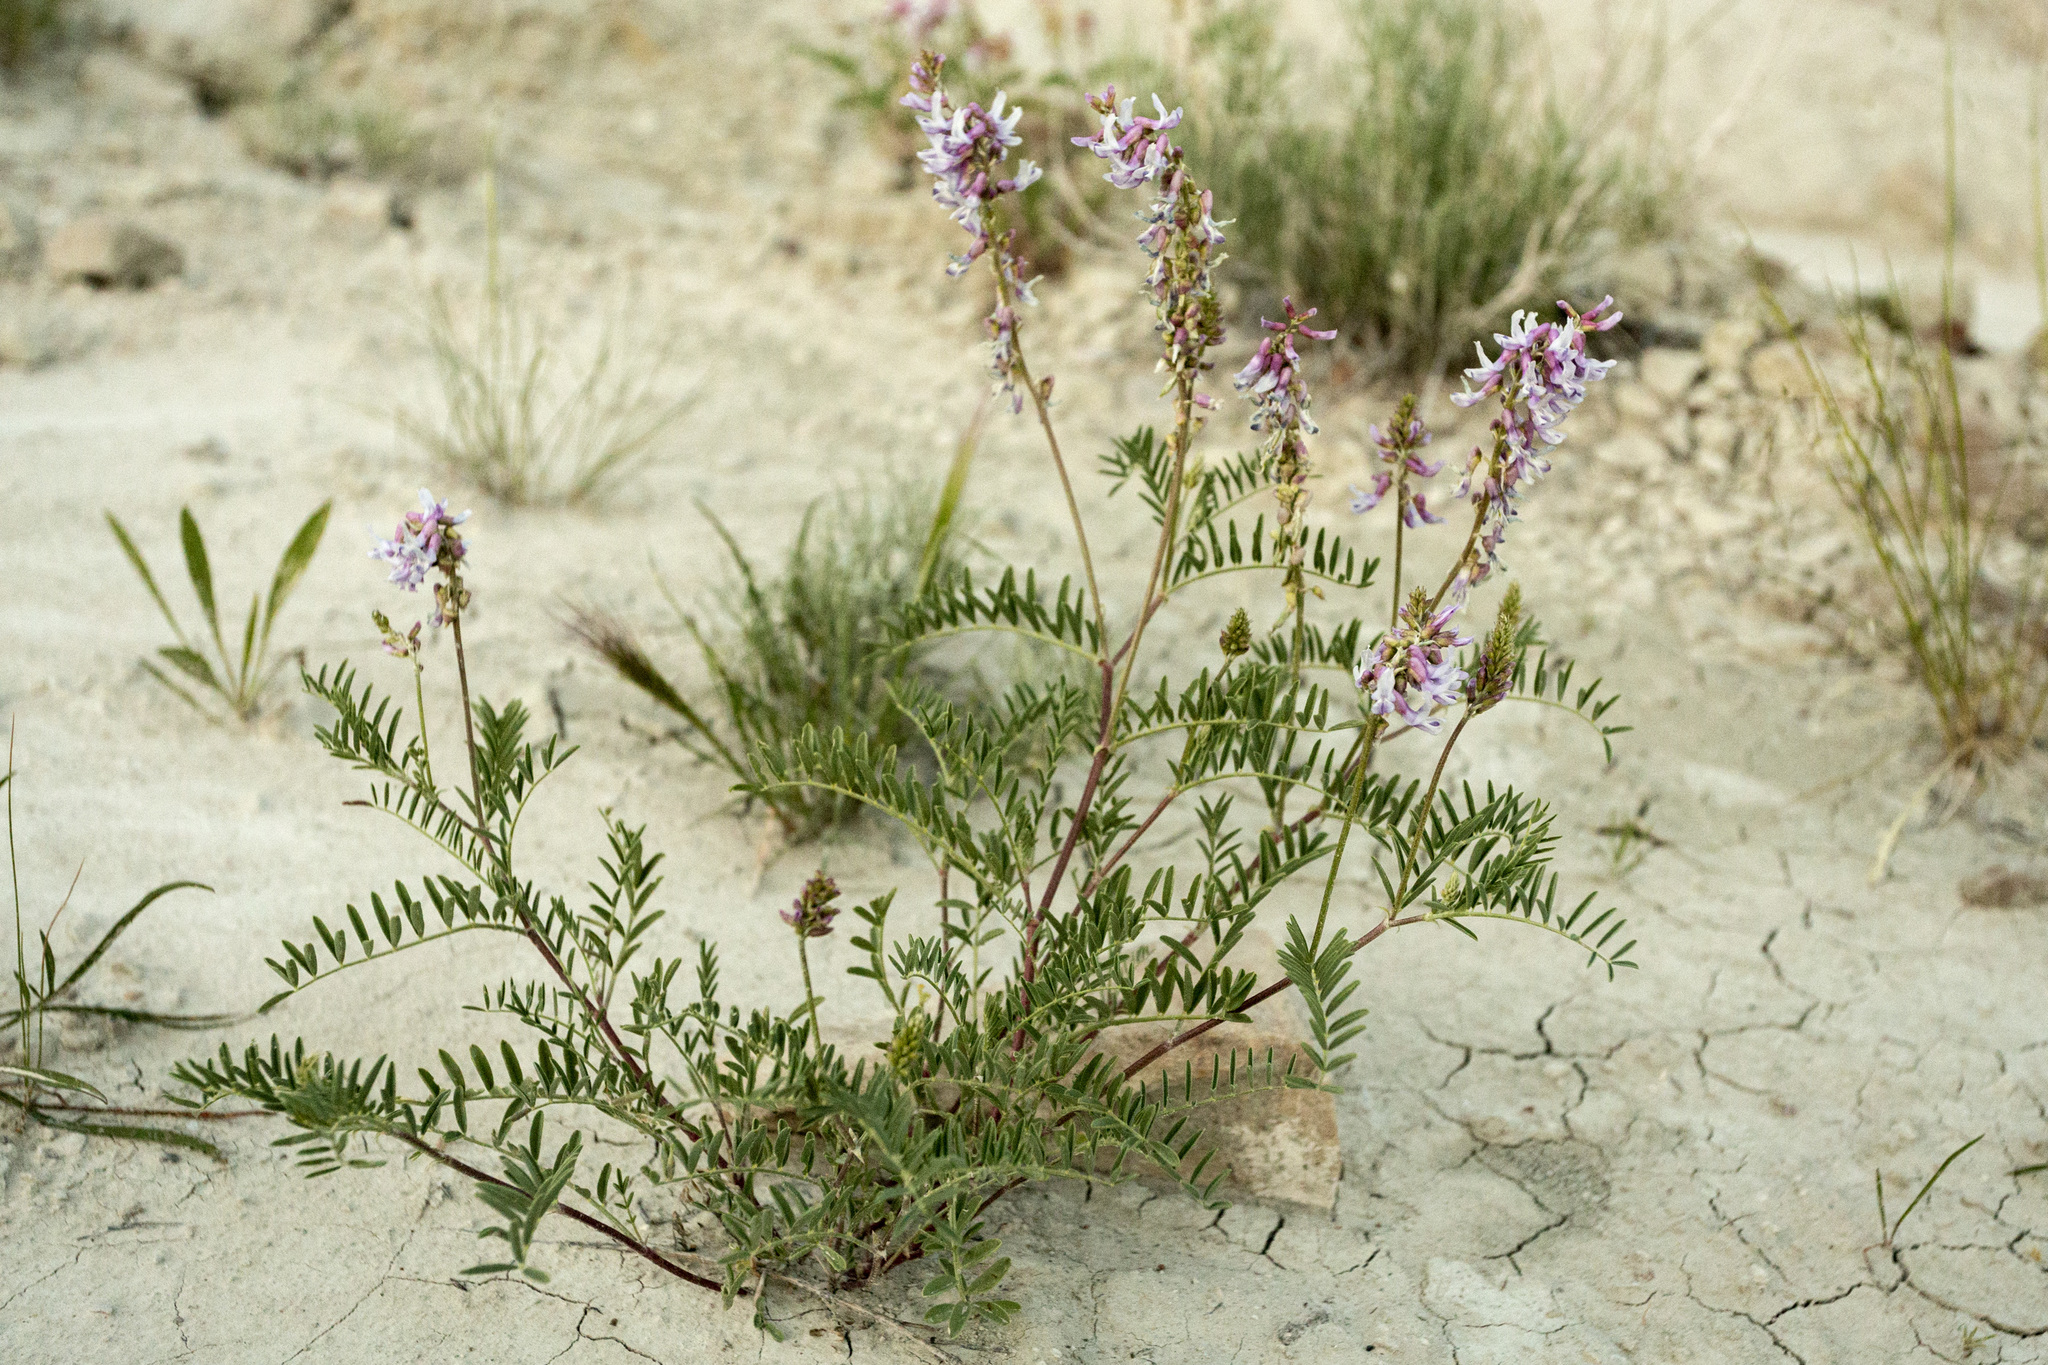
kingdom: Plantae
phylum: Tracheophyta
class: Magnoliopsida
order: Fabales
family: Fabaceae
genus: Astragalus
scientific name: Astragalus bisulcatus
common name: Two-groove milk-vetch
